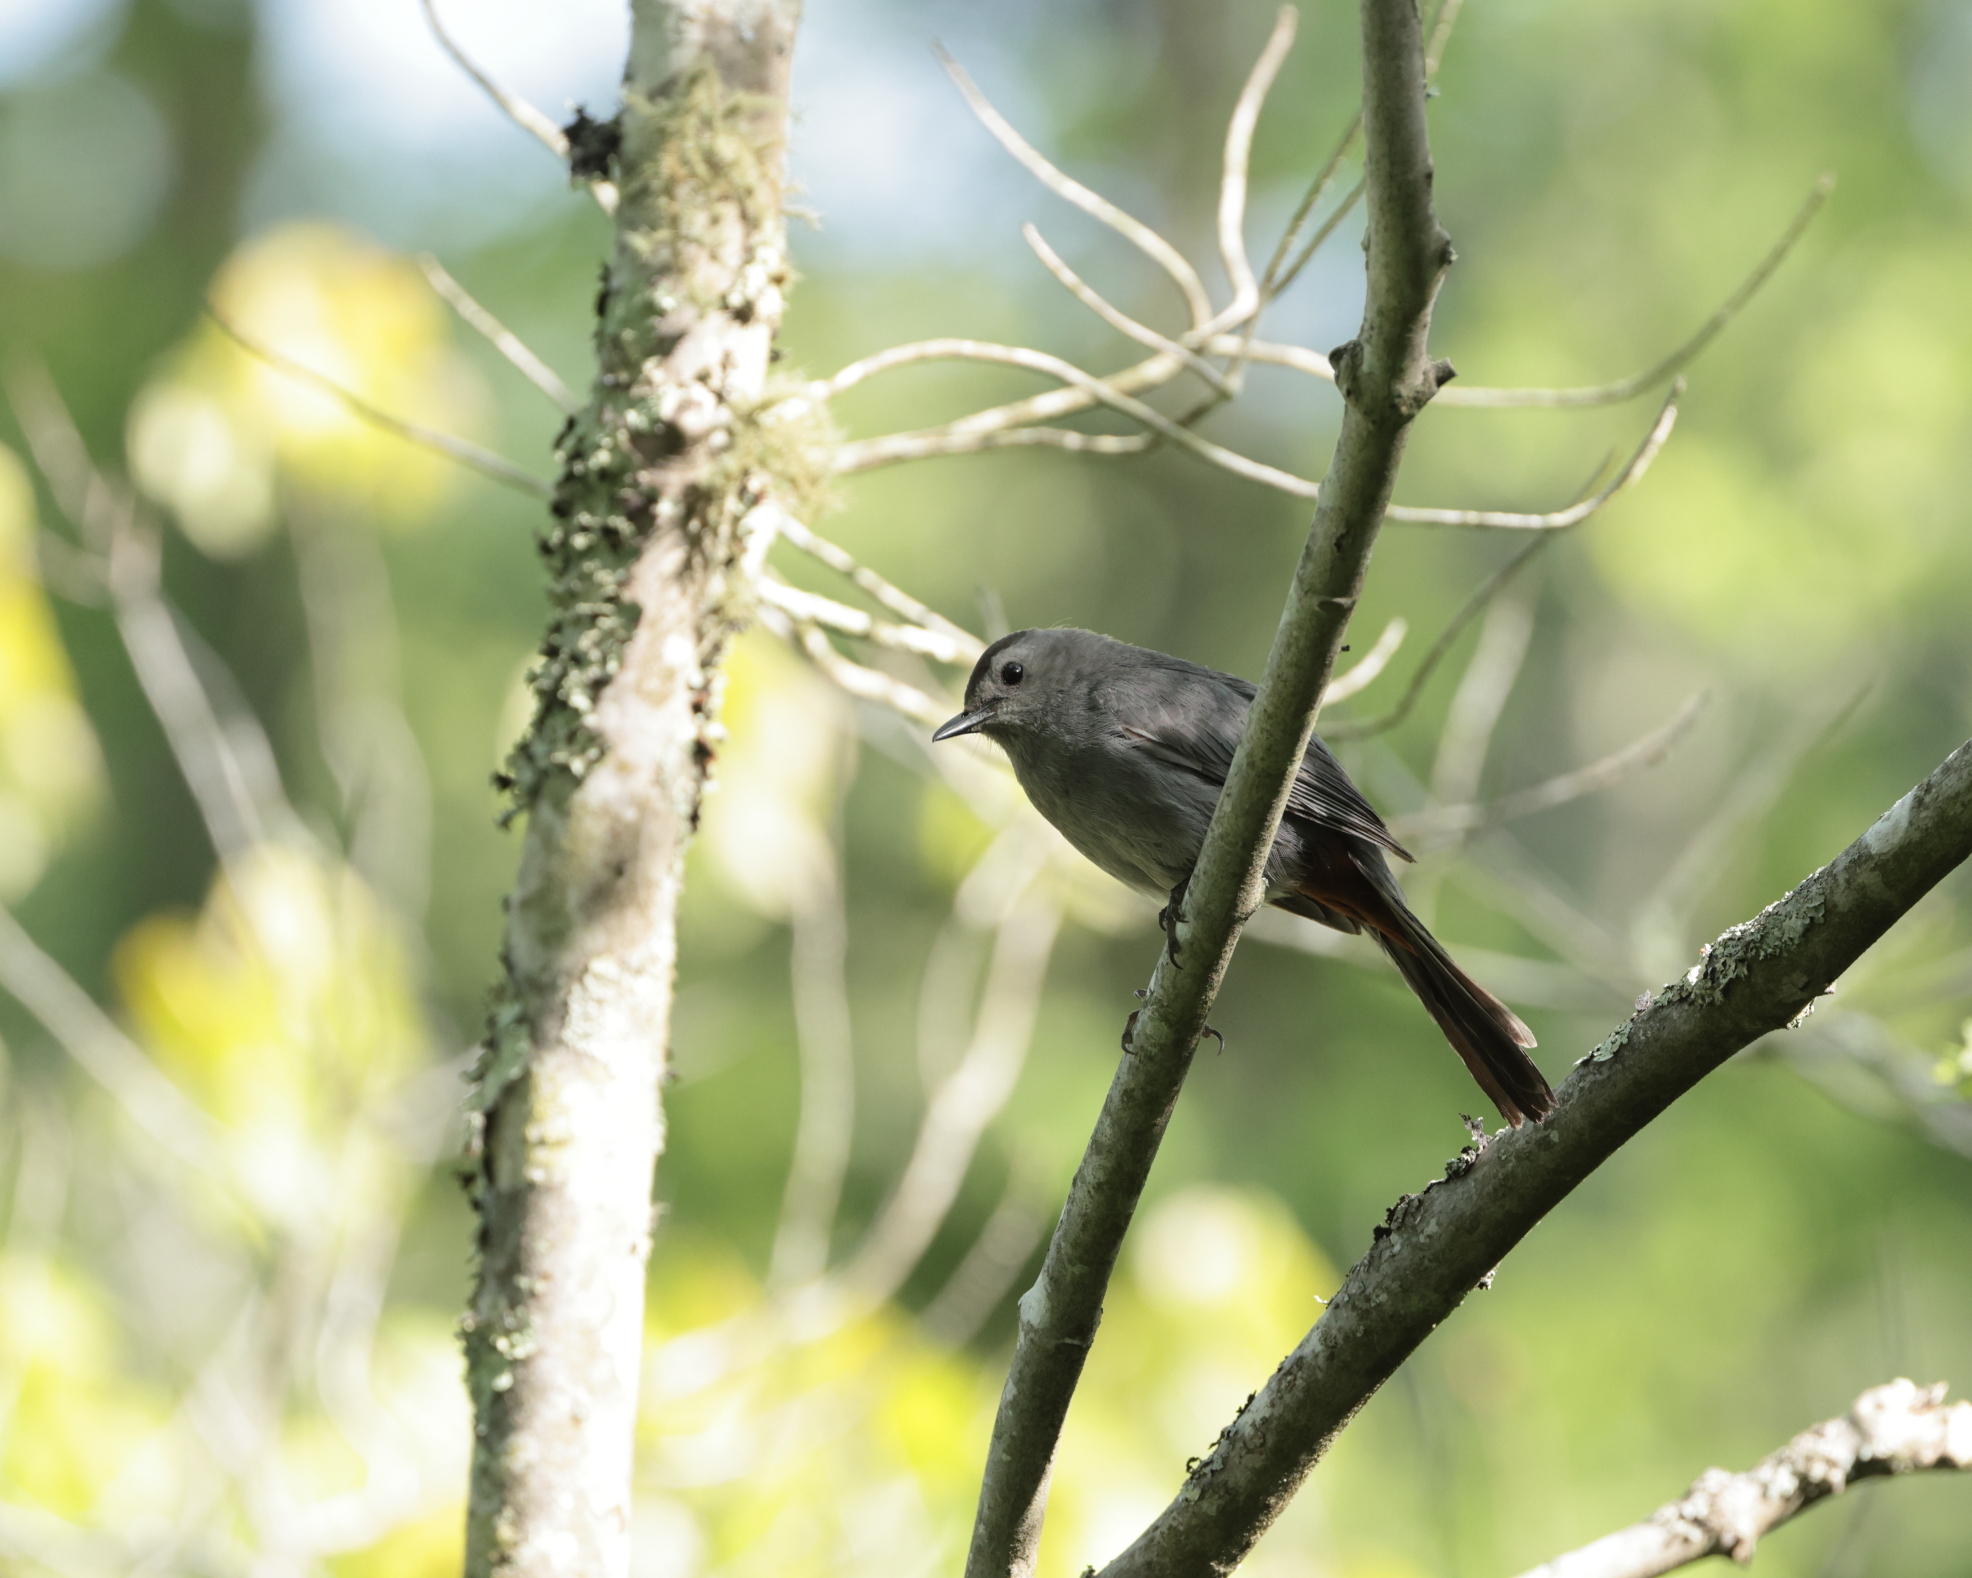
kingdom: Animalia
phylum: Chordata
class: Aves
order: Passeriformes
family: Mimidae
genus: Dumetella
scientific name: Dumetella carolinensis
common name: Gray catbird
